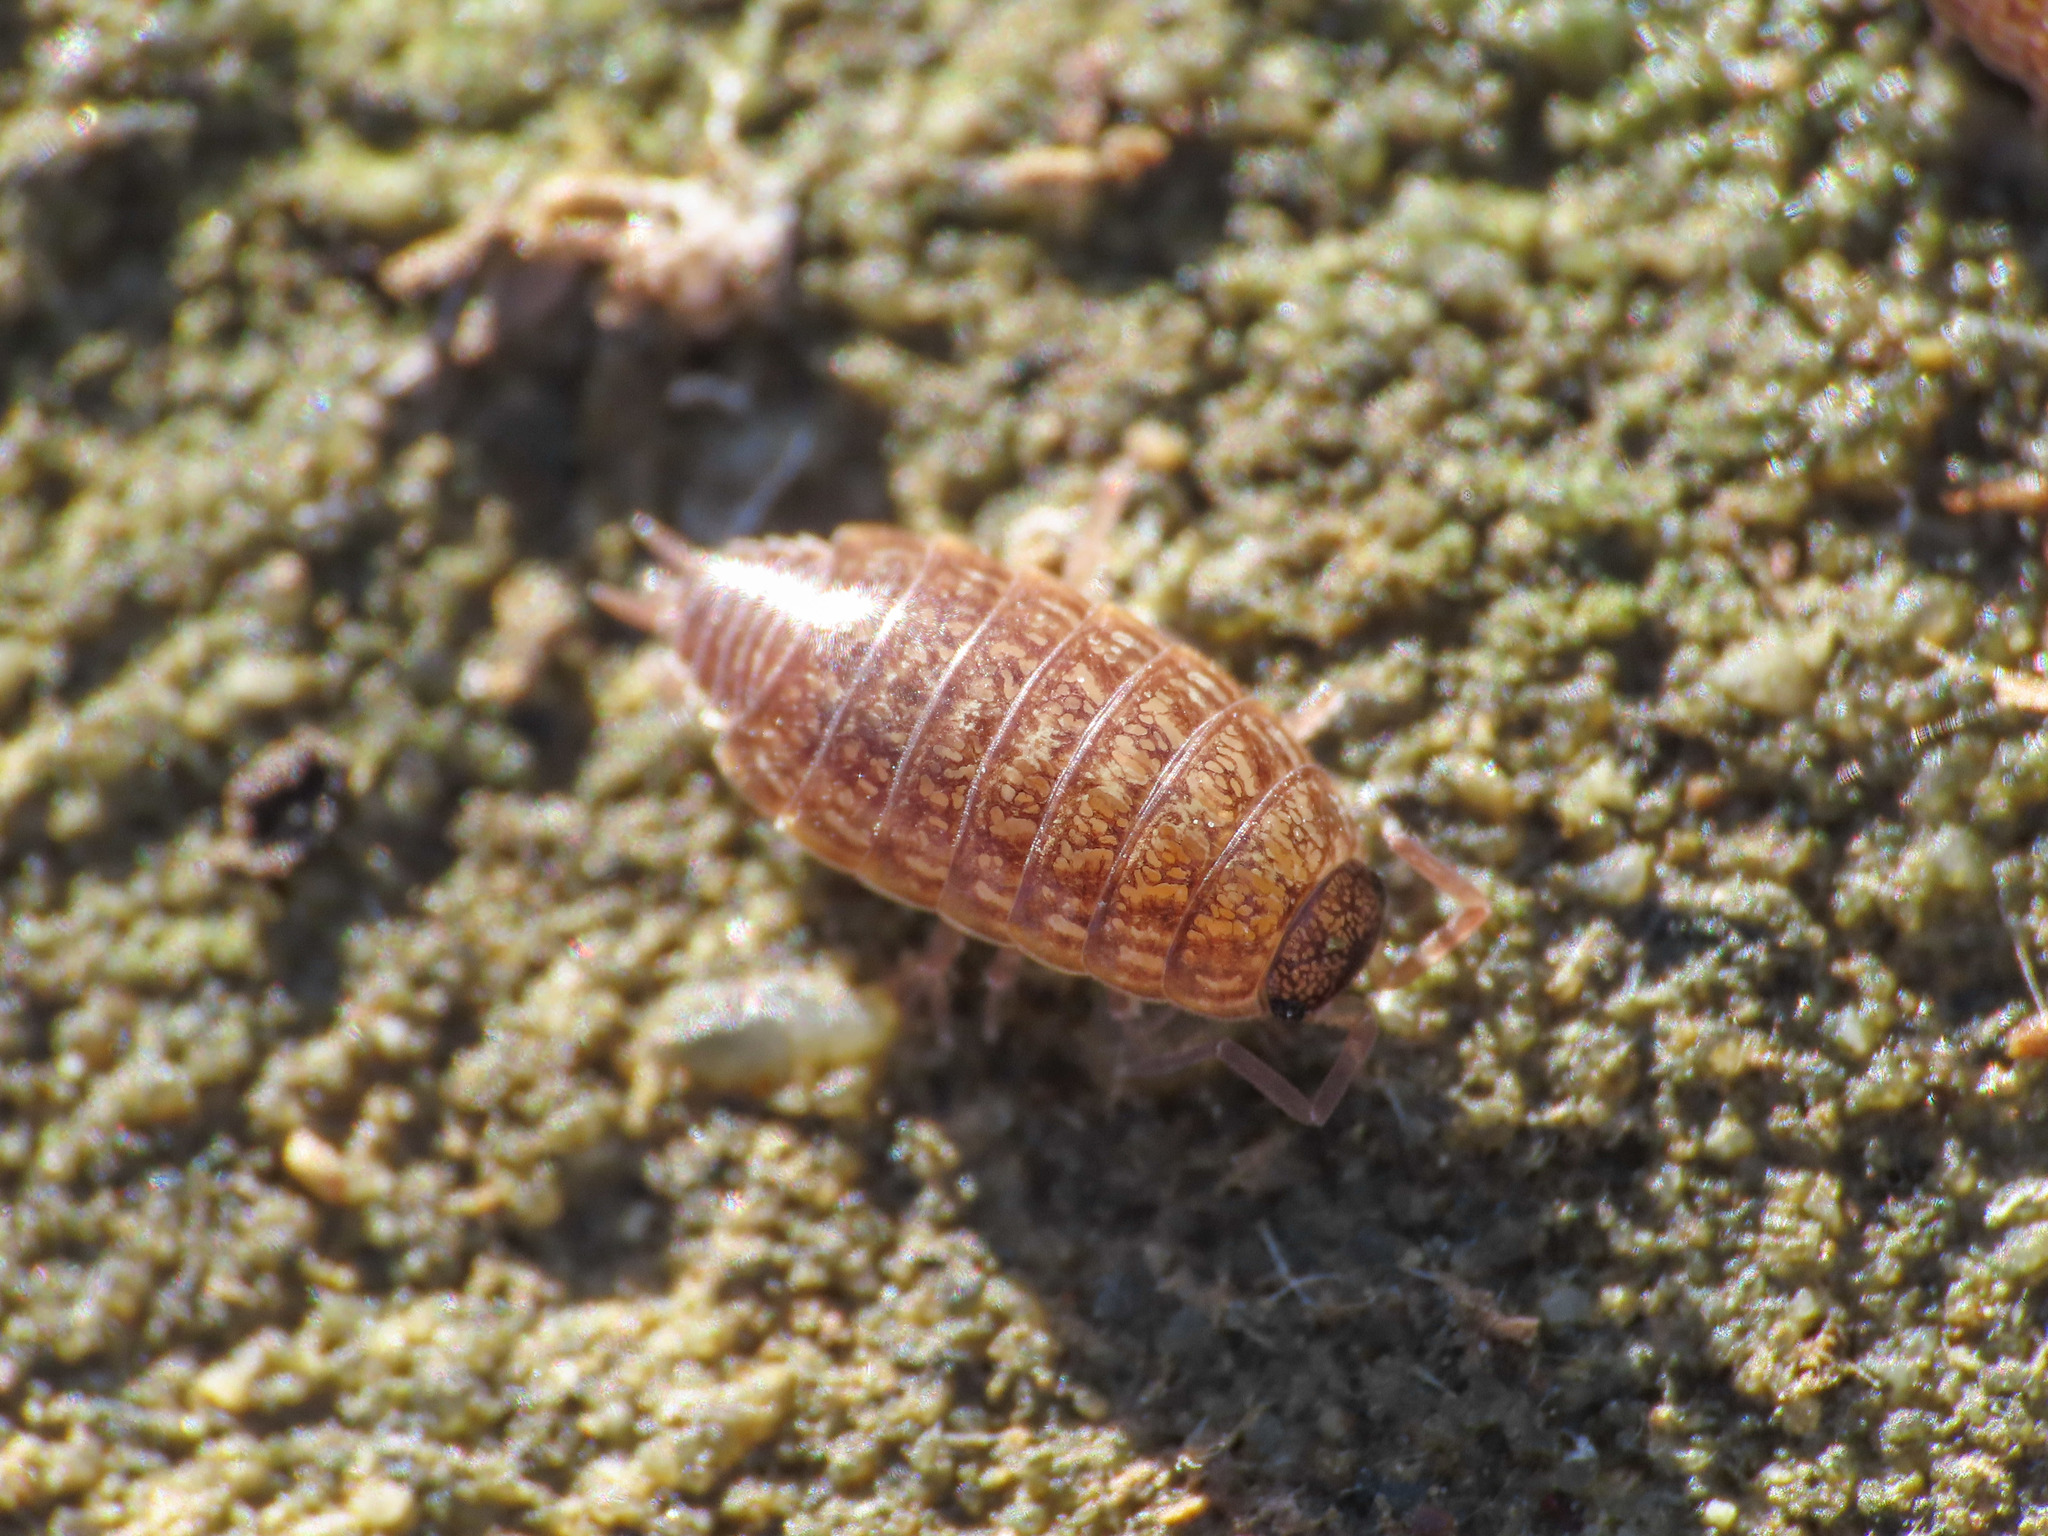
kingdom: Animalia
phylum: Arthropoda
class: Malacostraca
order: Isopoda
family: Philosciidae
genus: Philoscia
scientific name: Philoscia affinis
